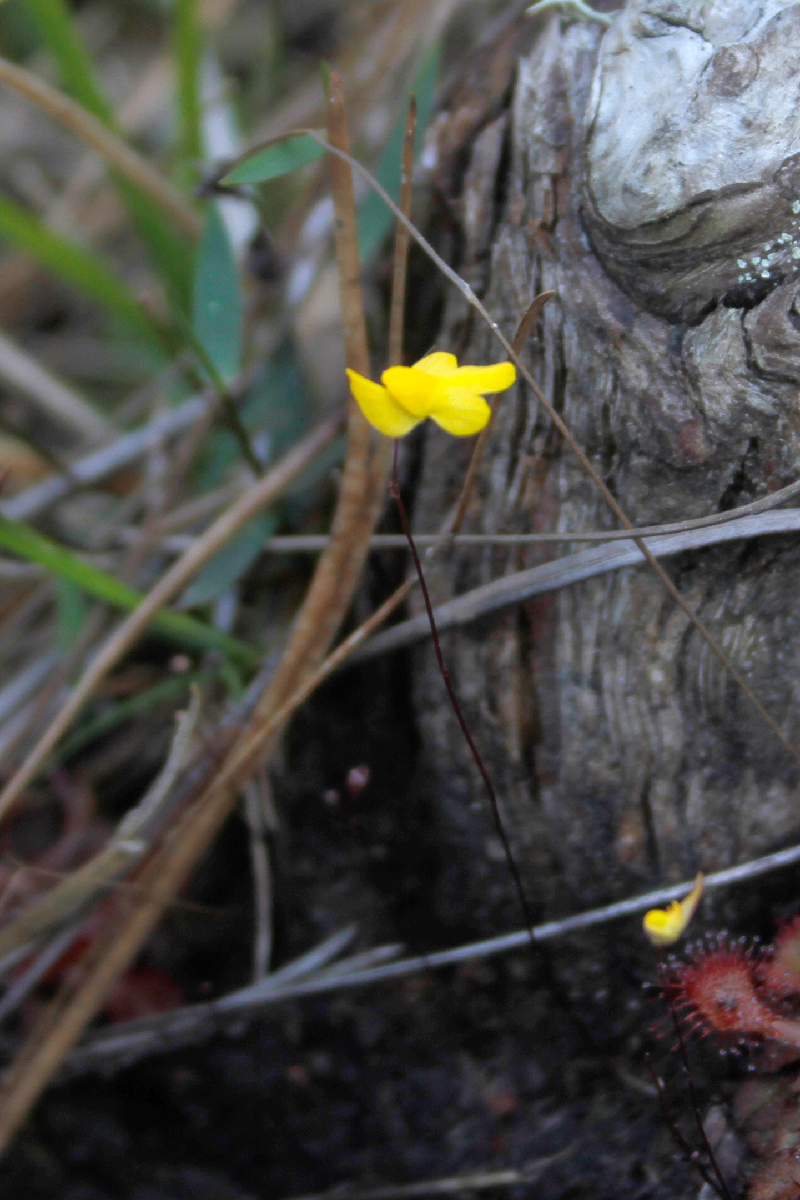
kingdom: Plantae
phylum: Tracheophyta
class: Magnoliopsida
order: Lamiales
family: Lentibulariaceae
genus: Utricularia
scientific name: Utricularia subulata
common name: Tiny bladderwort
